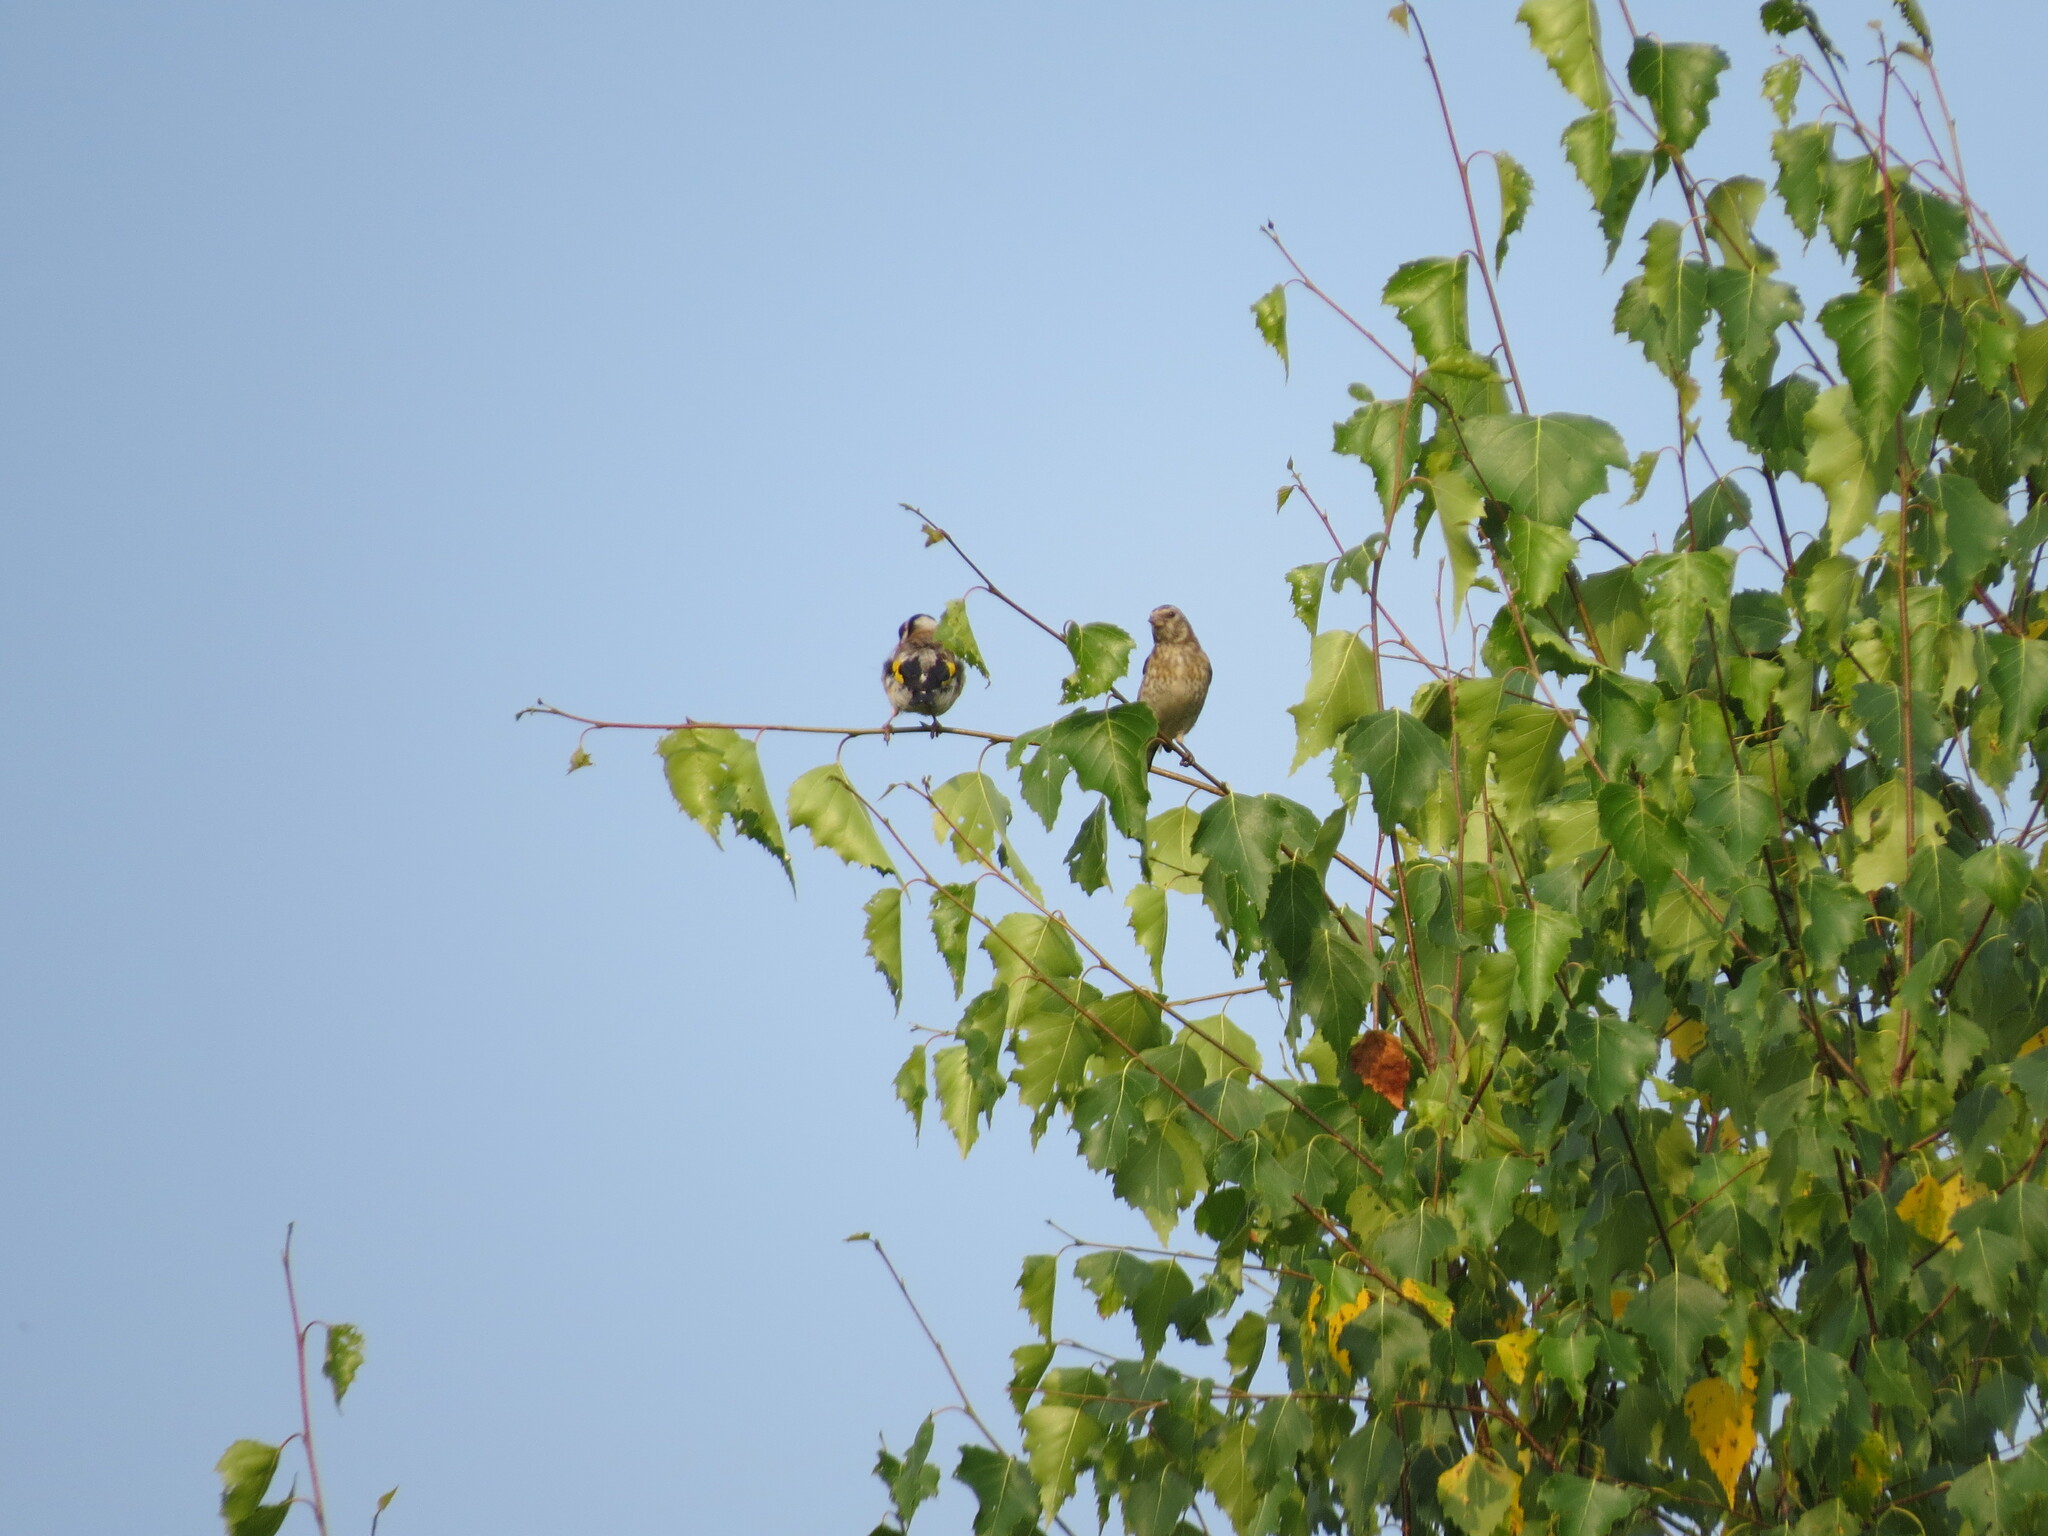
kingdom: Animalia
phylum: Chordata
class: Aves
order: Passeriformes
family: Fringillidae
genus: Carduelis
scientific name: Carduelis carduelis
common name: European goldfinch
